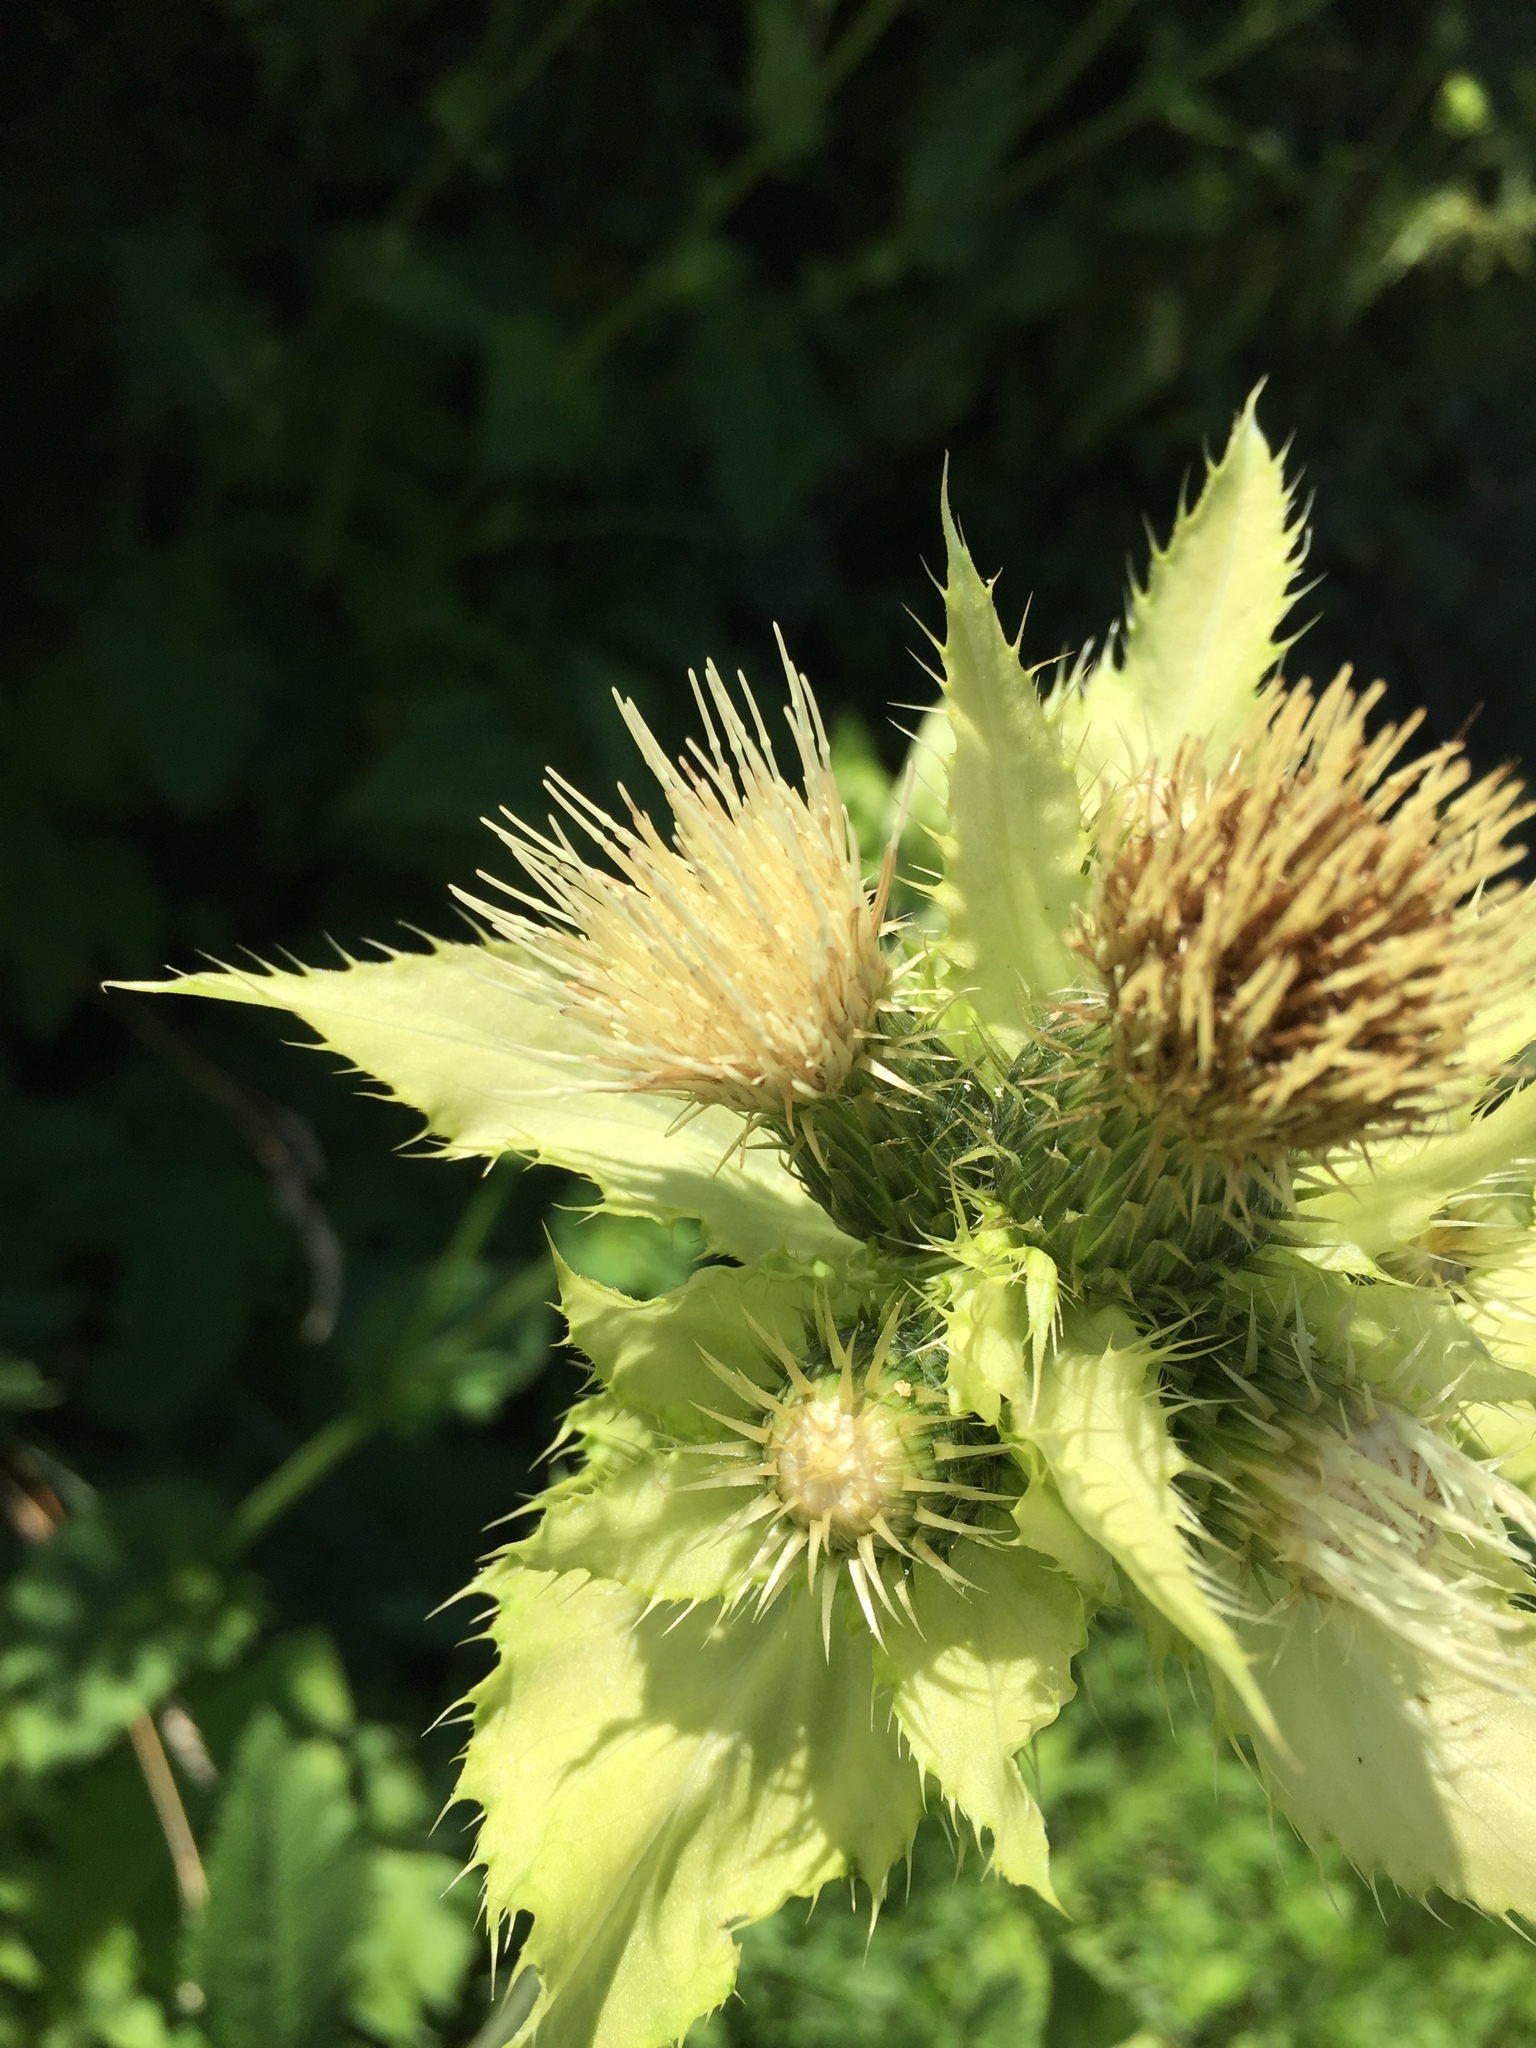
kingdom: Plantae
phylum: Tracheophyta
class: Magnoliopsida
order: Asterales
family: Asteraceae
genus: Cirsium
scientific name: Cirsium oleraceum
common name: Cabbage thistle
